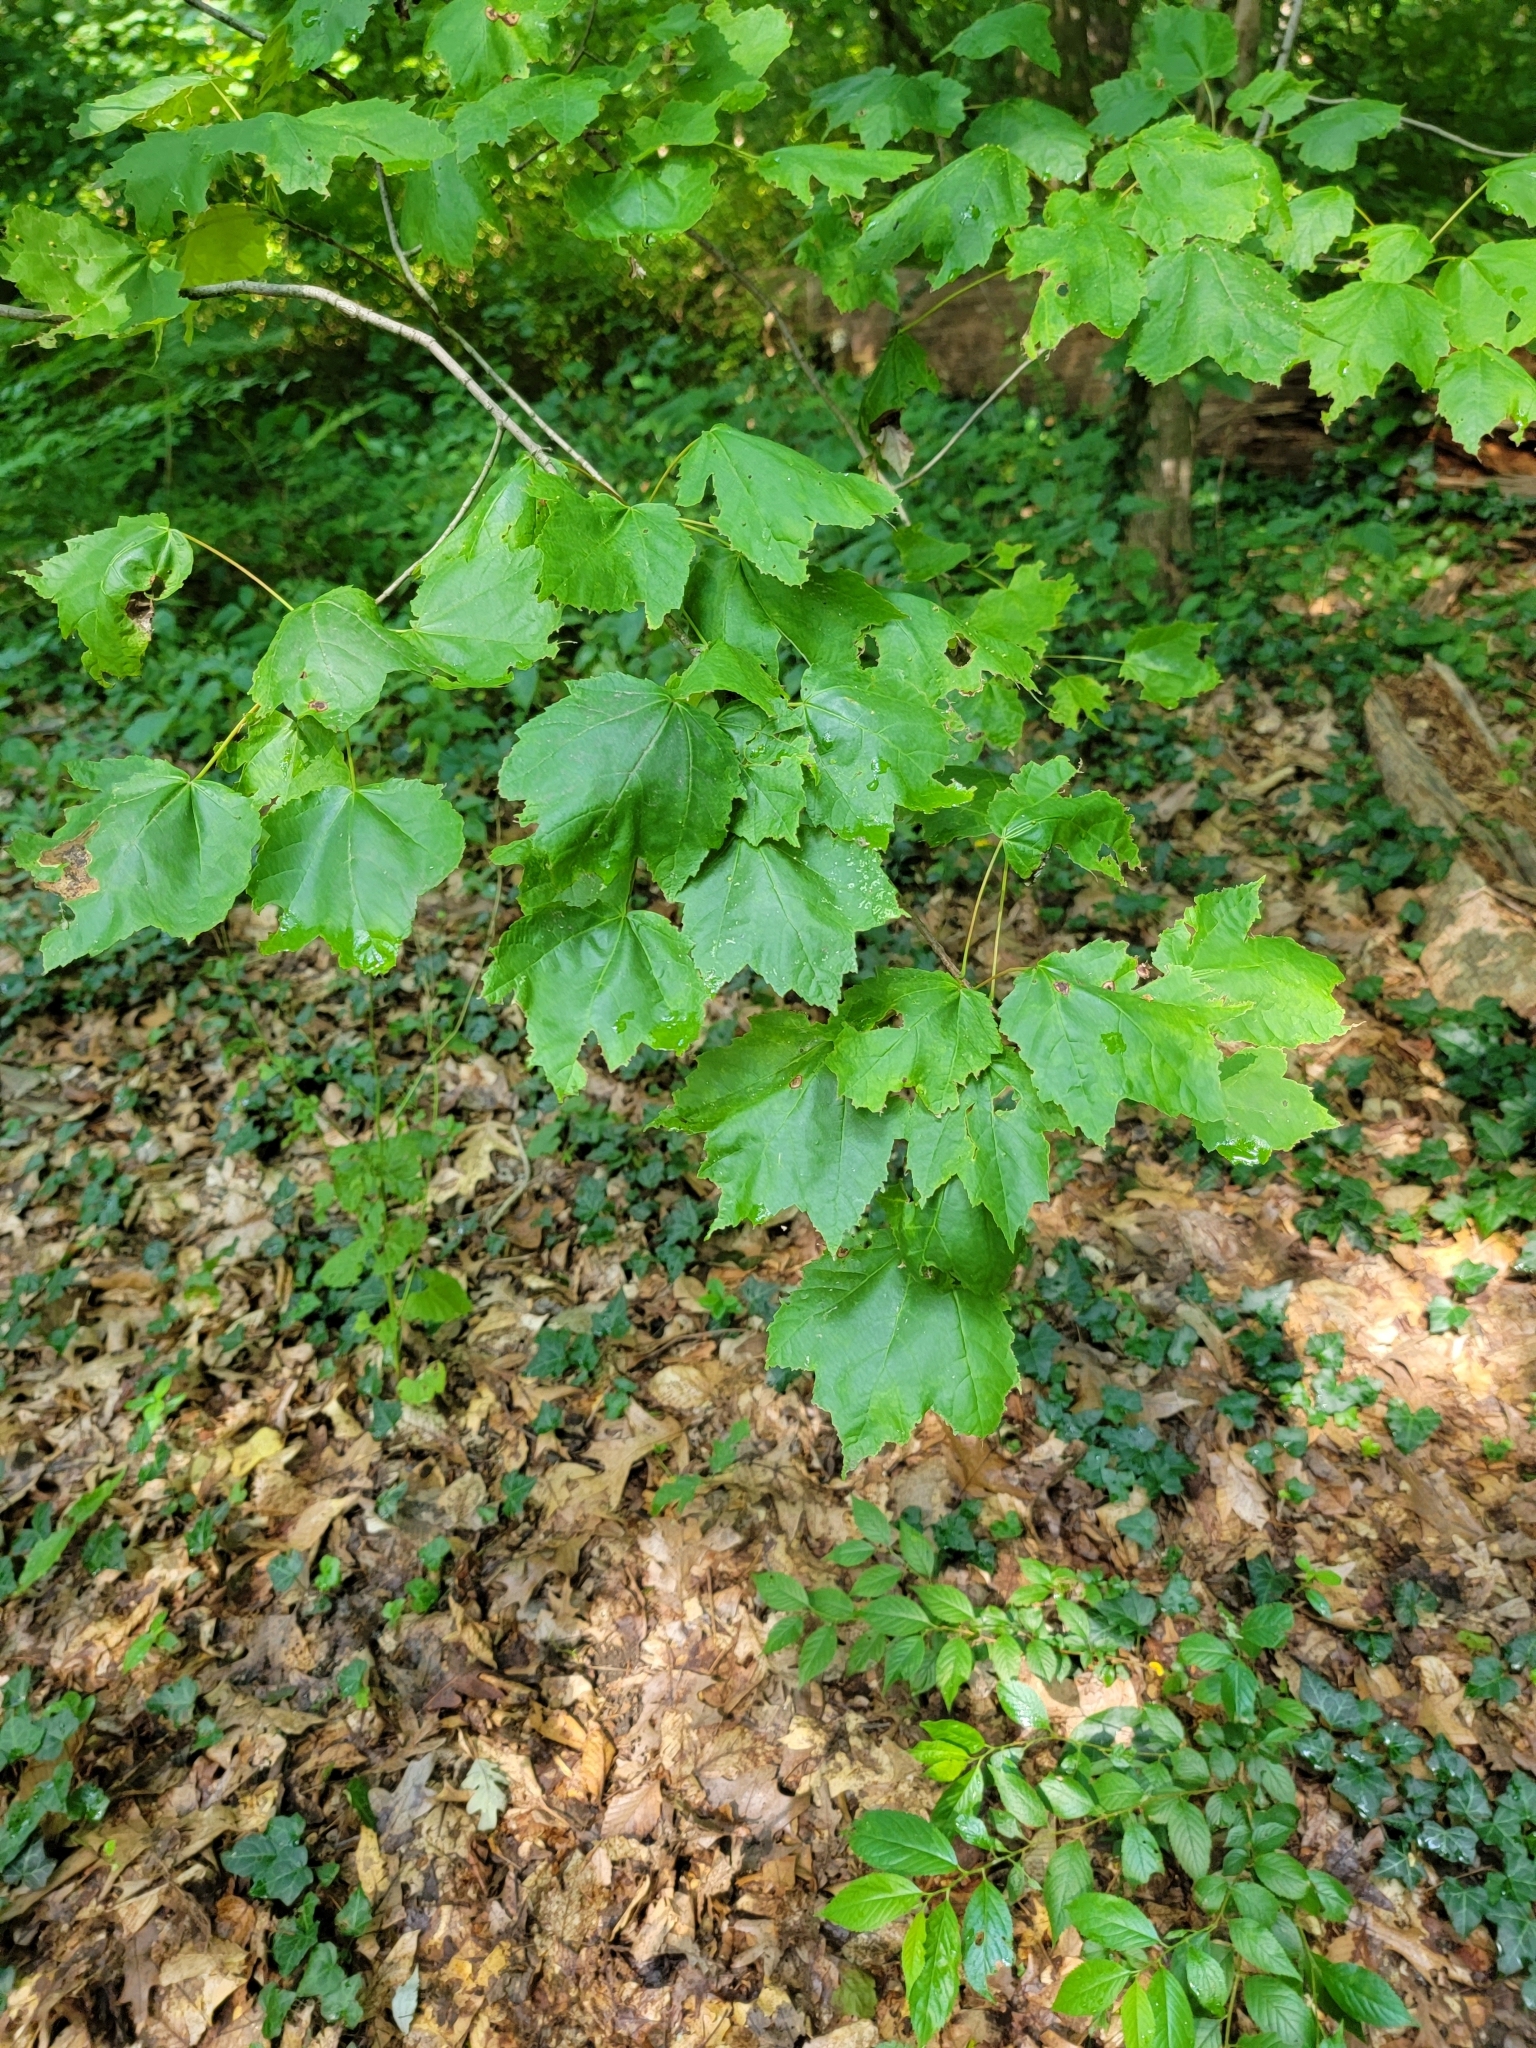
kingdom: Plantae
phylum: Tracheophyta
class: Magnoliopsida
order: Sapindales
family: Sapindaceae
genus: Acer
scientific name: Acer rubrum
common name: Red maple
